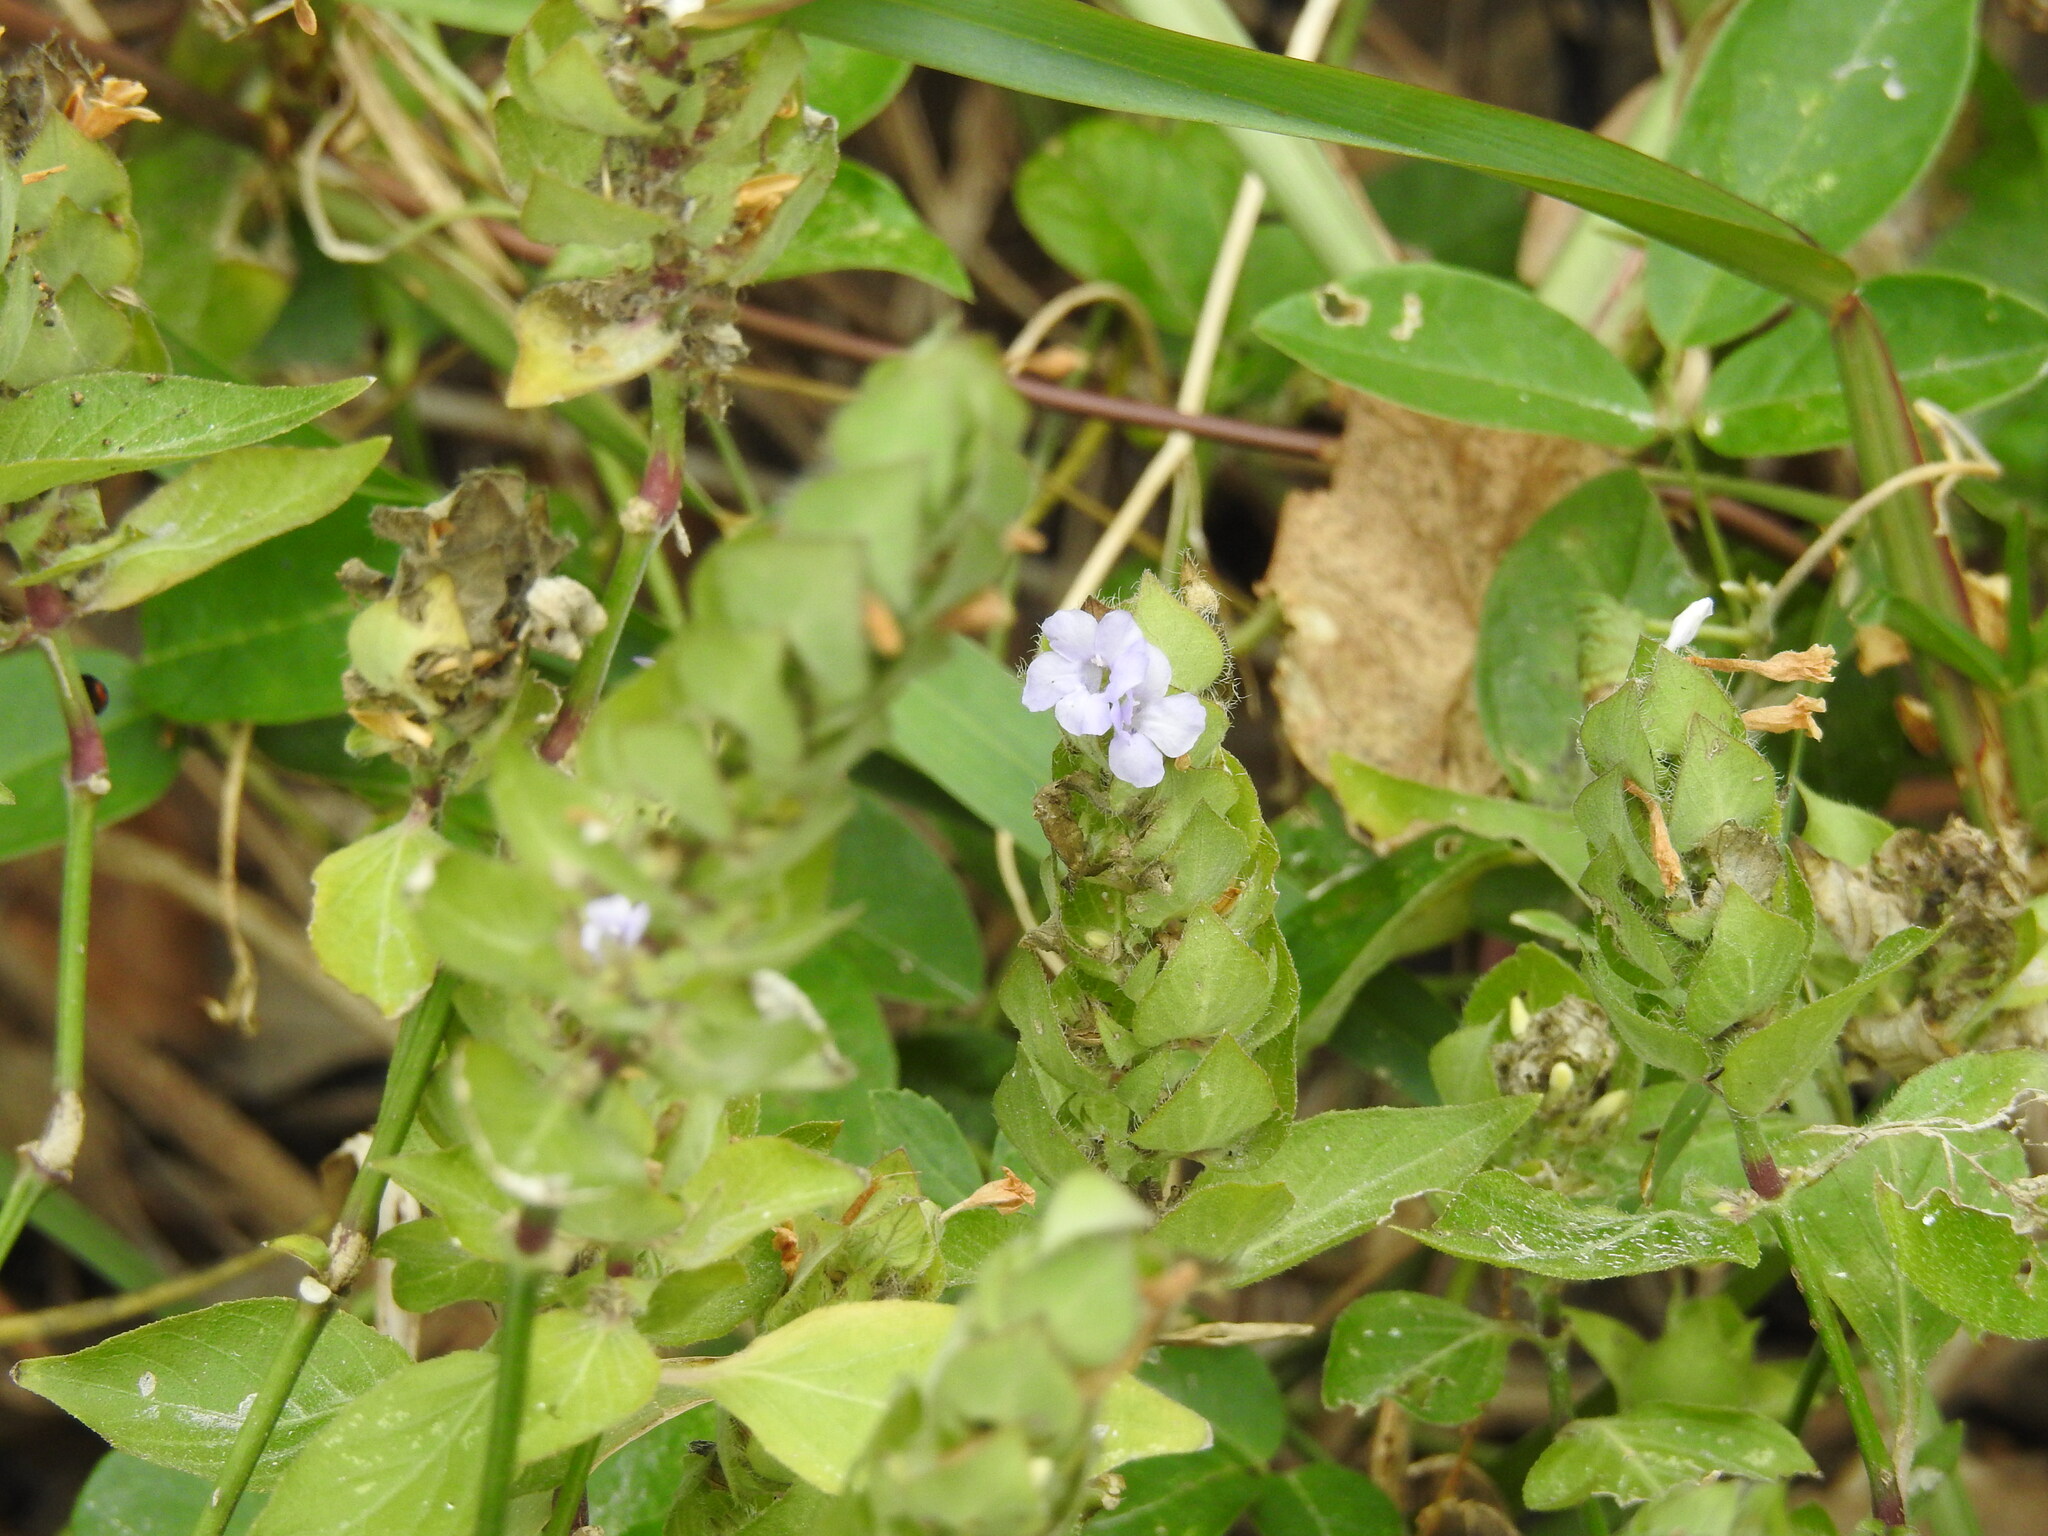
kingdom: Plantae
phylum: Tracheophyta
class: Magnoliopsida
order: Lamiales
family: Acanthaceae
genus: Ruellia
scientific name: Ruellia blechum
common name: Browne's blechum
